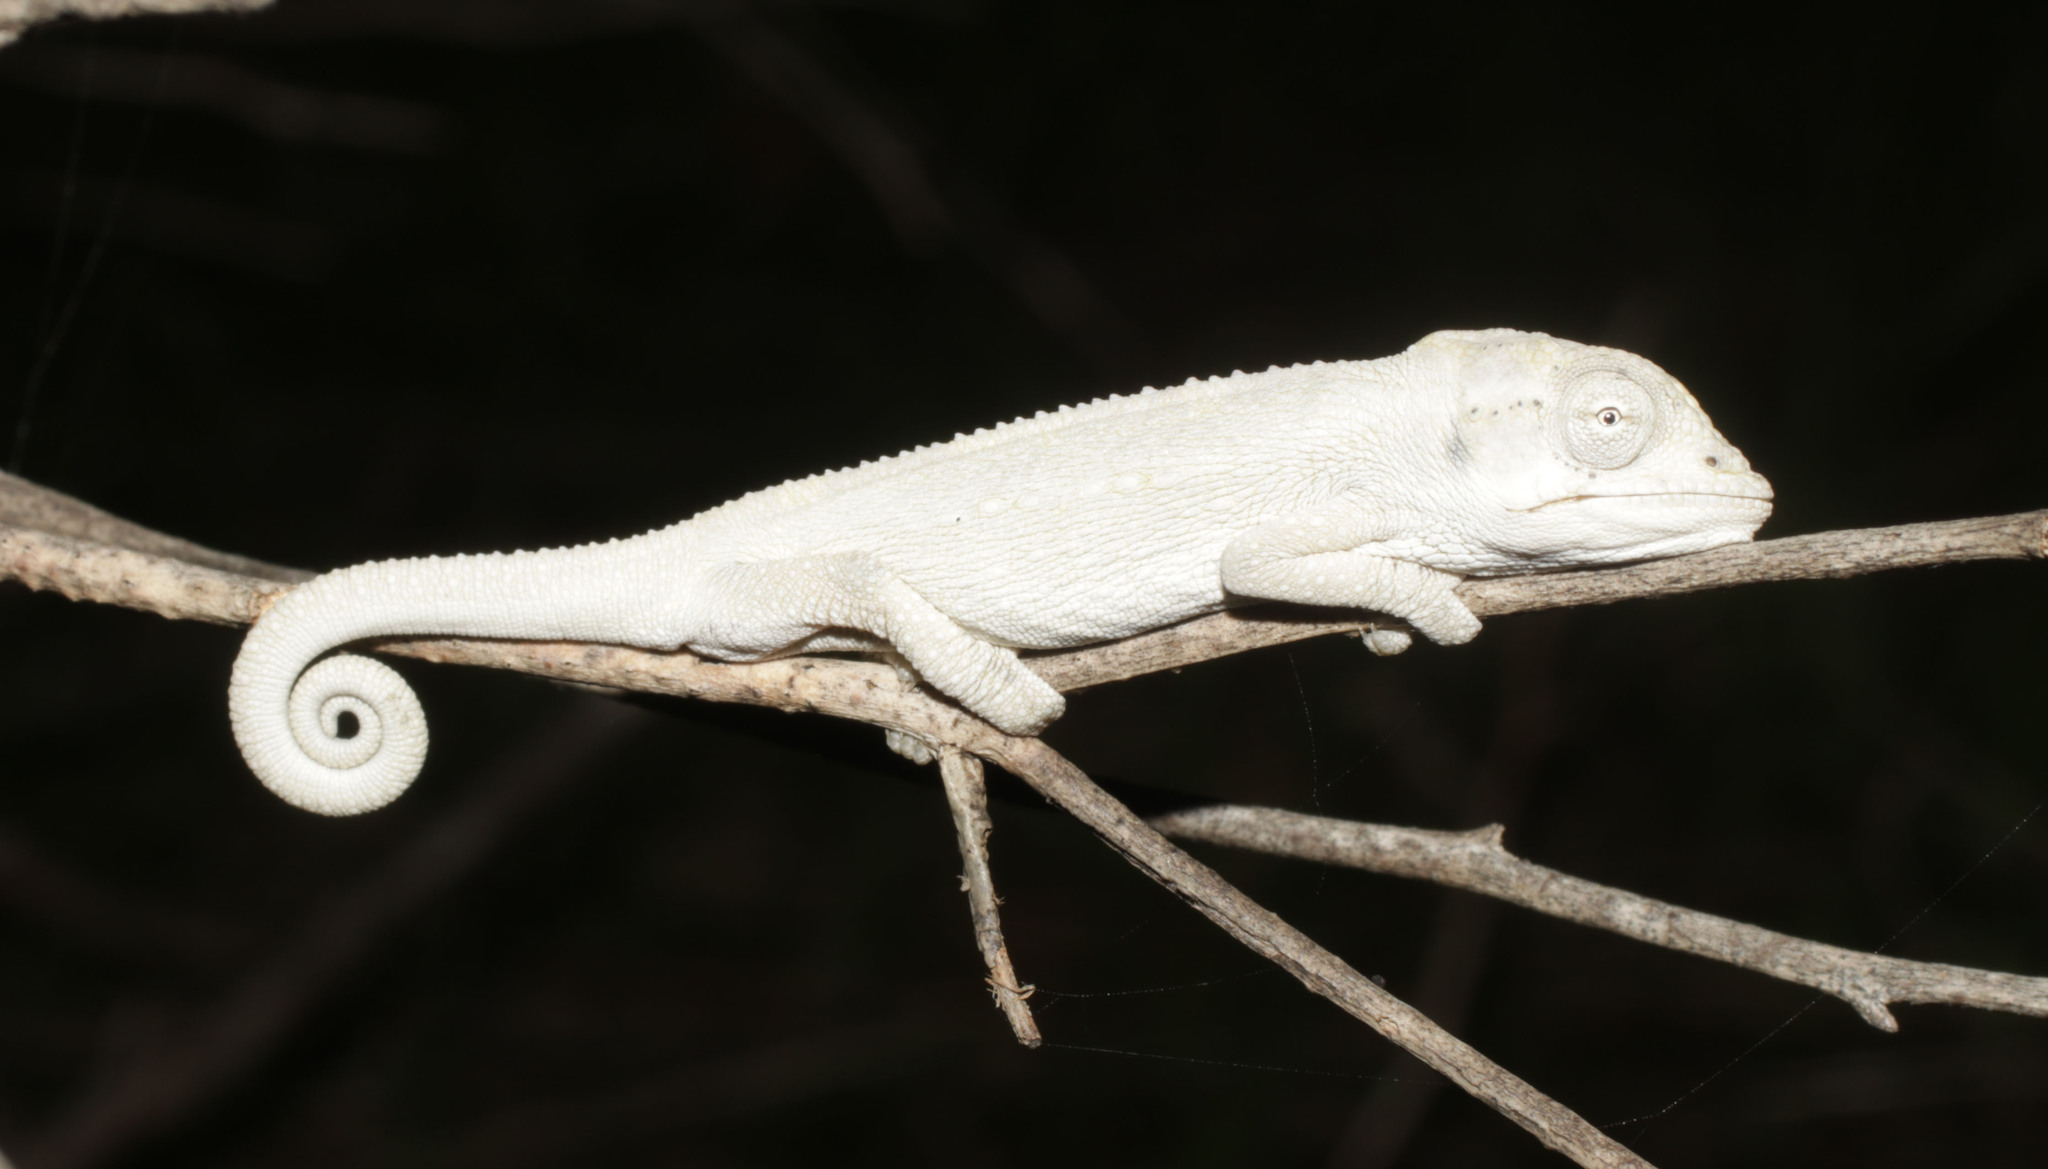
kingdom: Animalia
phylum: Chordata
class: Squamata
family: Chamaeleonidae
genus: Bradypodion
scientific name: Bradypodion pumilum
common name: Cape dwarf chameleon
